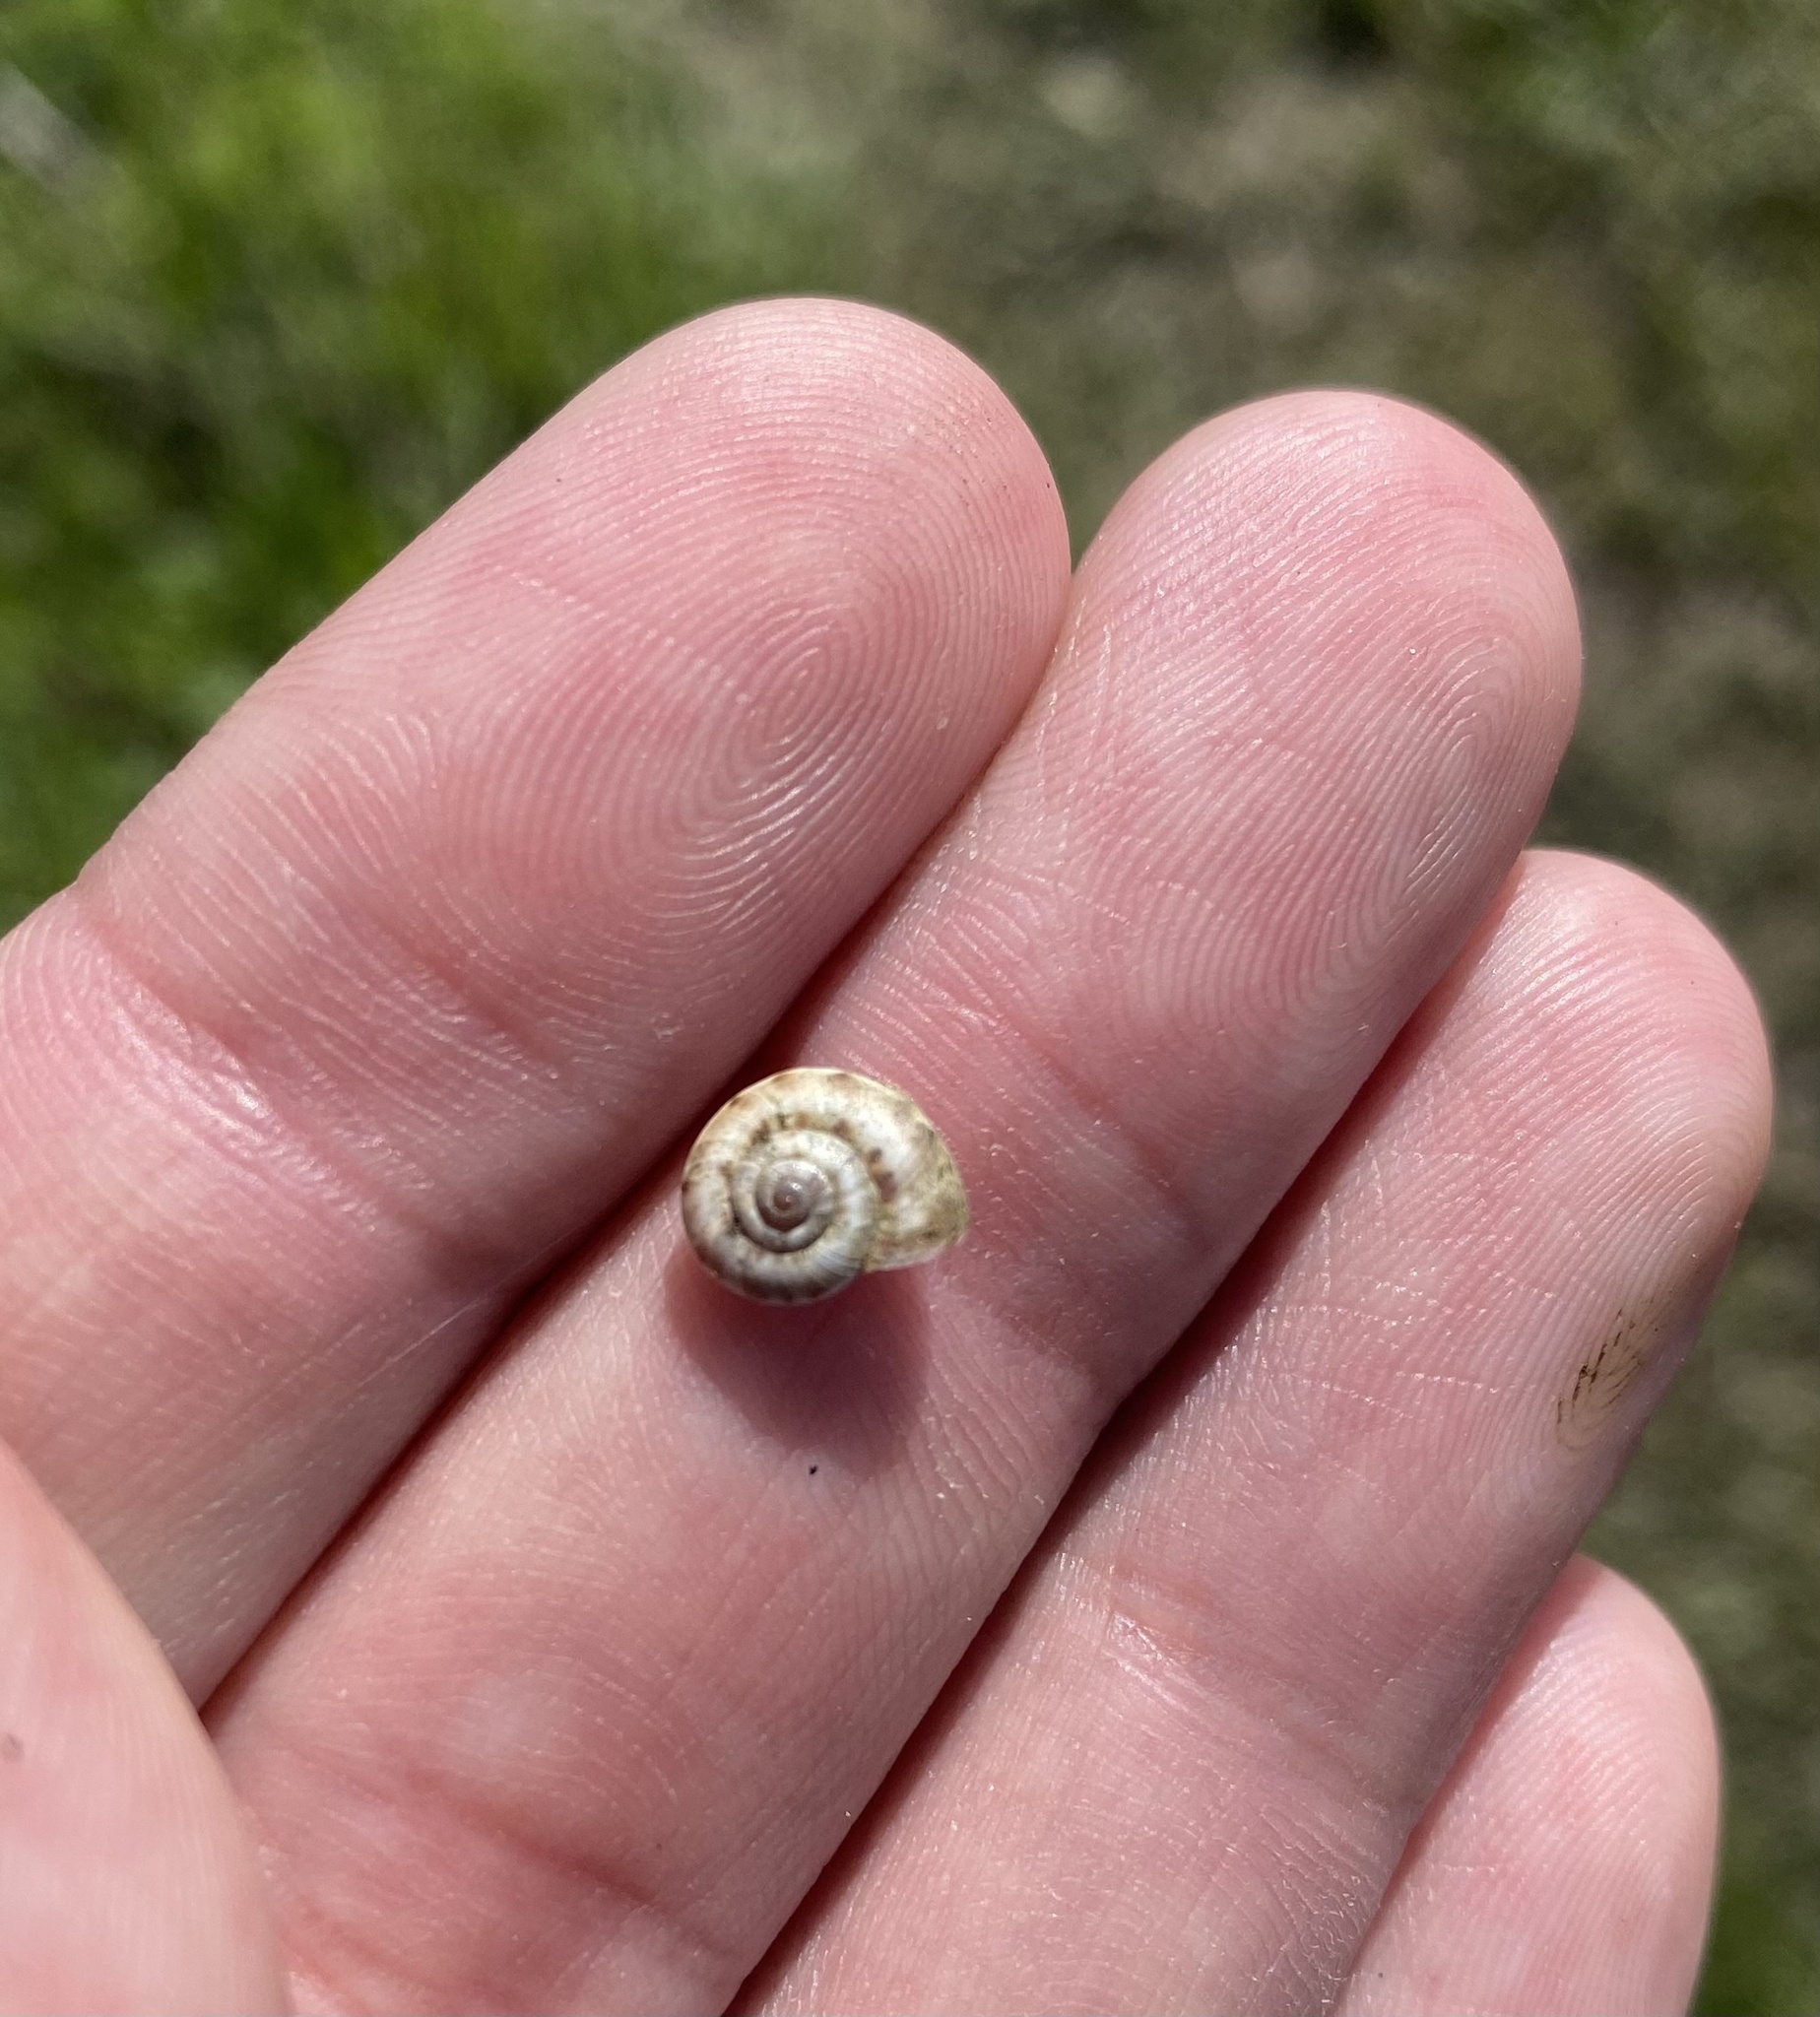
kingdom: Animalia
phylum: Mollusca
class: Gastropoda
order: Stylommatophora
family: Geomitridae
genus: Xeropicta
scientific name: Xeropicta derbentina
